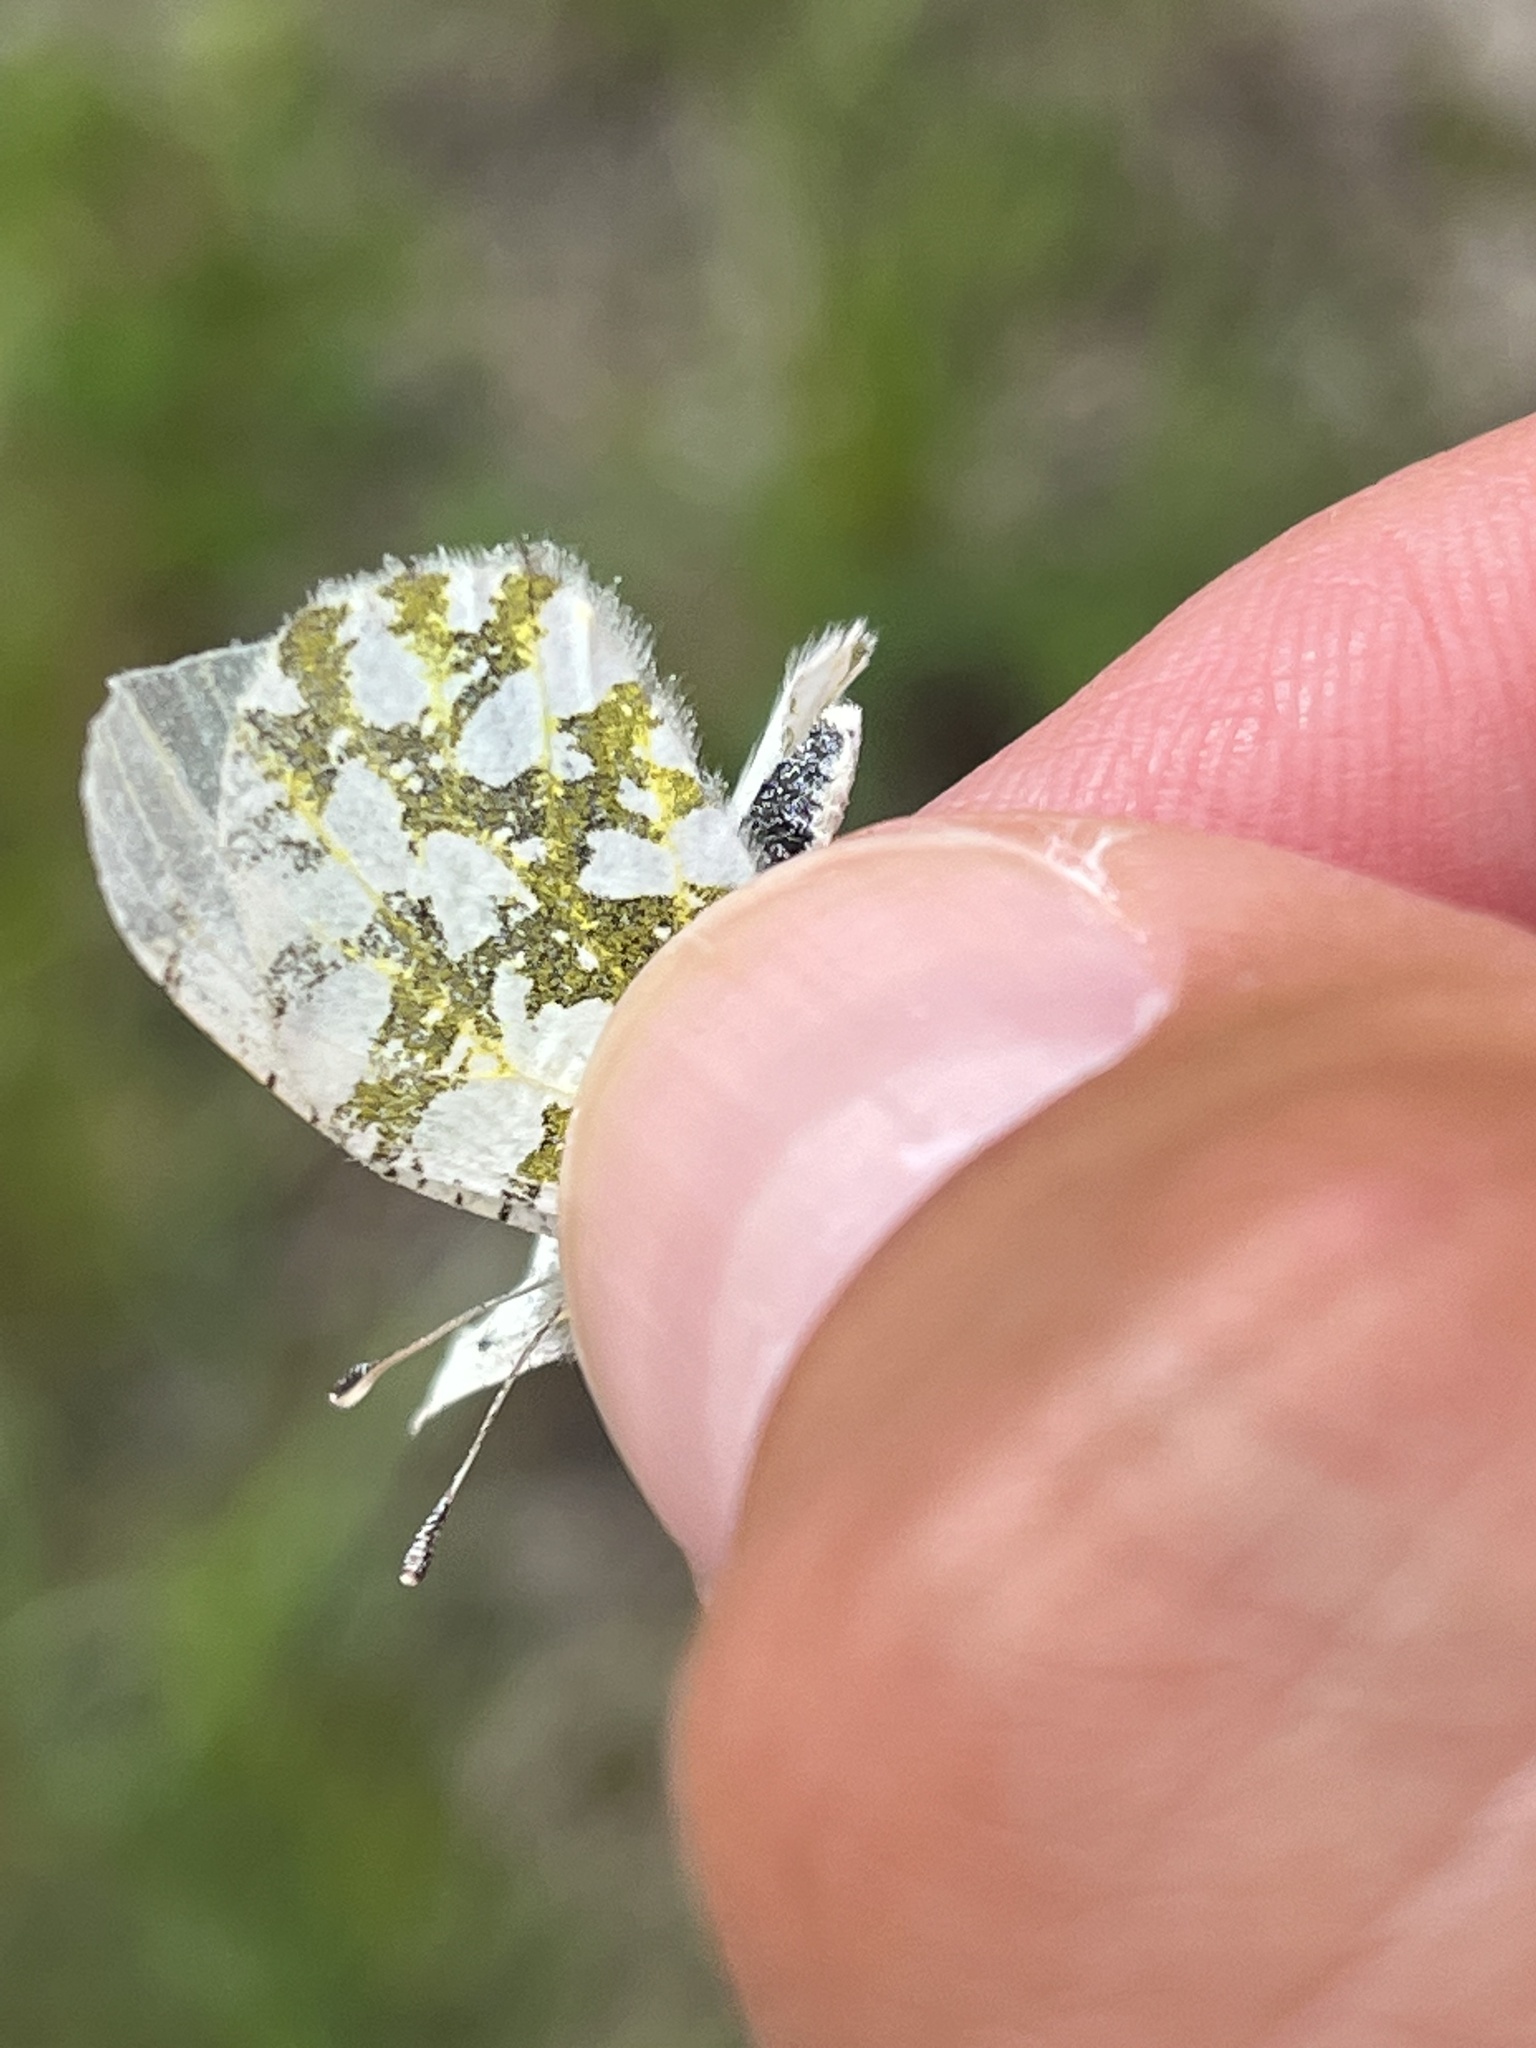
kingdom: Animalia
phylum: Arthropoda
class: Insecta
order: Lepidoptera
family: Pieridae
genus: Euchloe
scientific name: Euchloe ausonides
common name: Creamy marblewing
